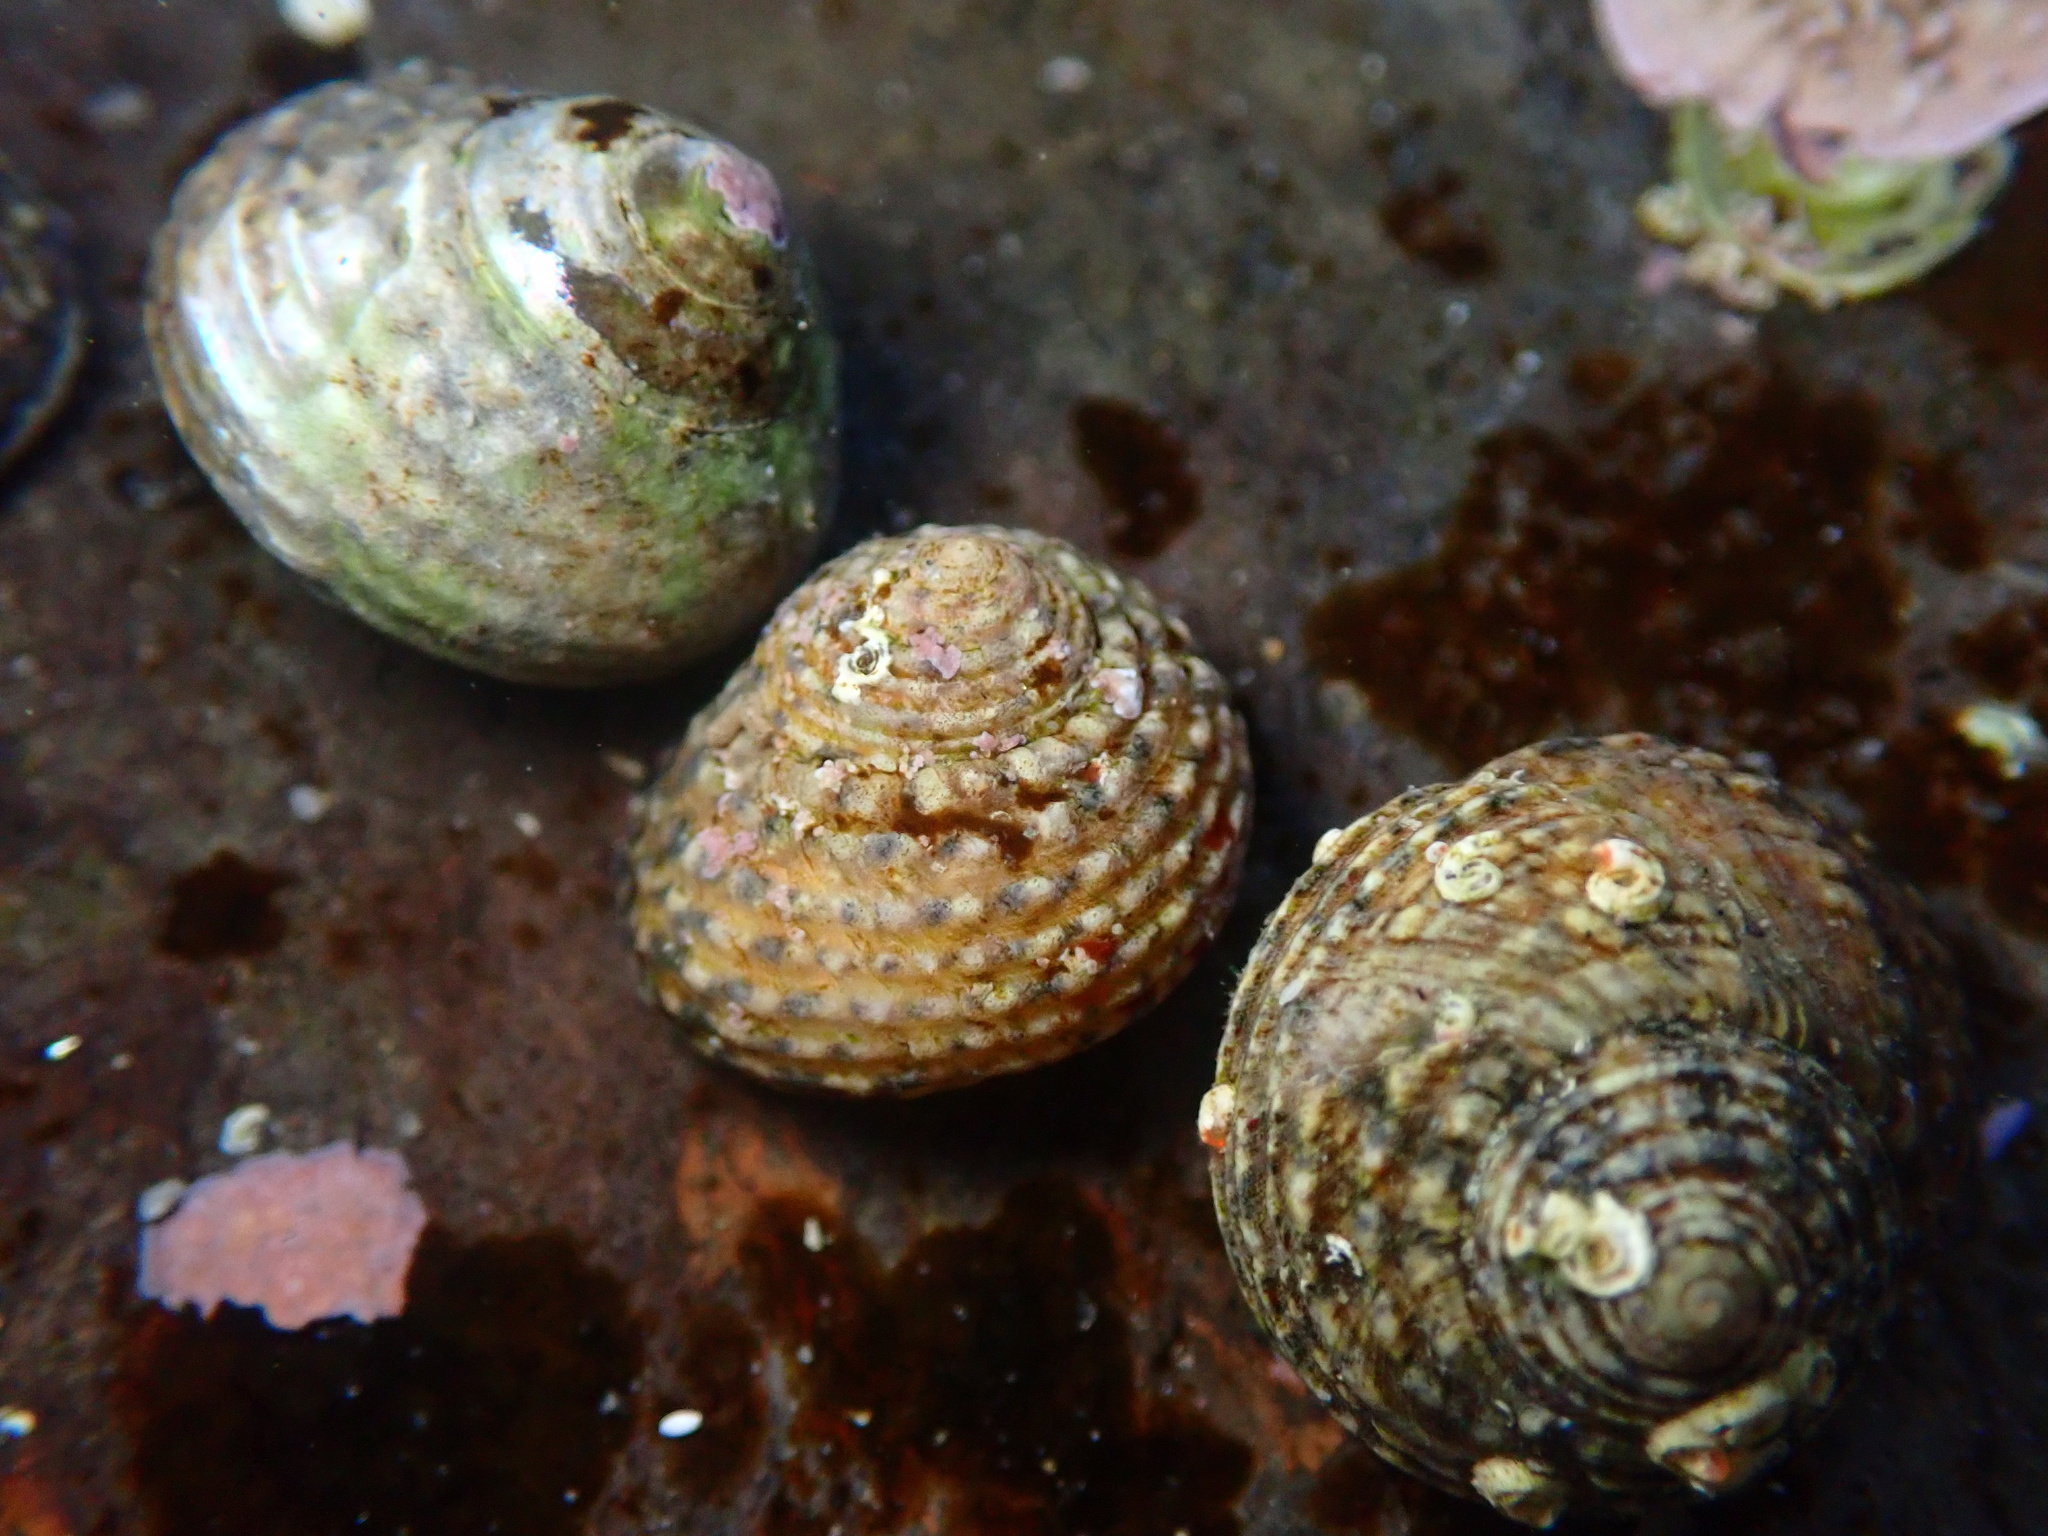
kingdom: Animalia
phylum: Mollusca
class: Gastropoda
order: Trochida
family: Tegulidae
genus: Tegula
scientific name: Tegula eiseni
